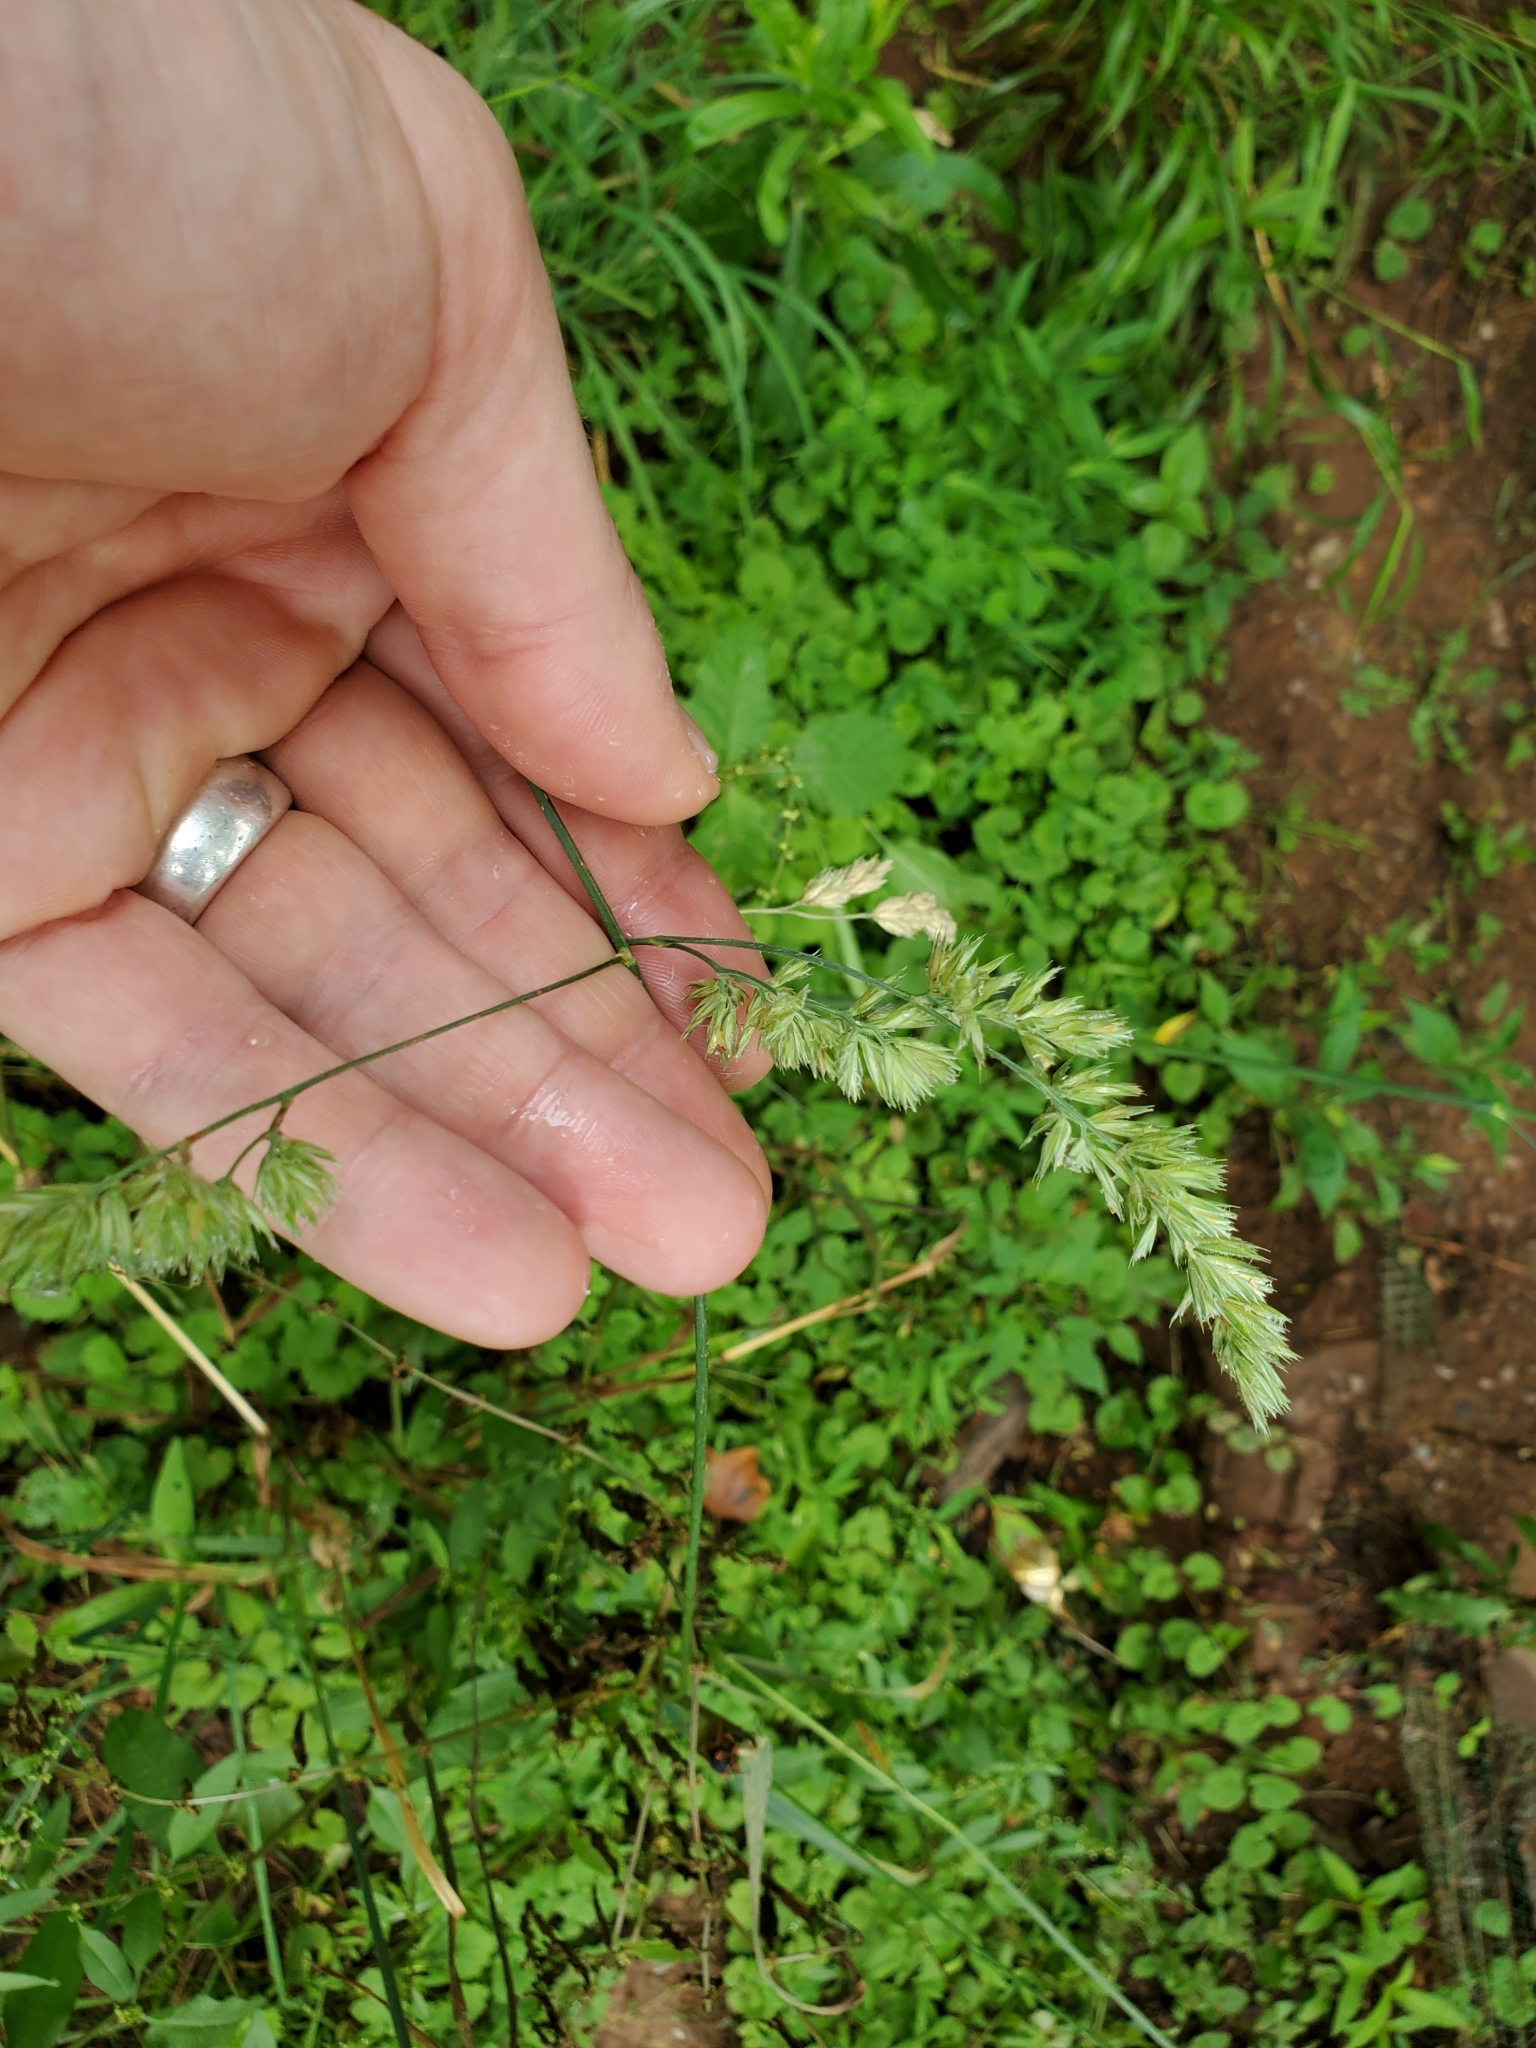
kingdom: Plantae
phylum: Tracheophyta
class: Liliopsida
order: Poales
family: Poaceae
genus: Dactylis
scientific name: Dactylis glomerata
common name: Orchardgrass
